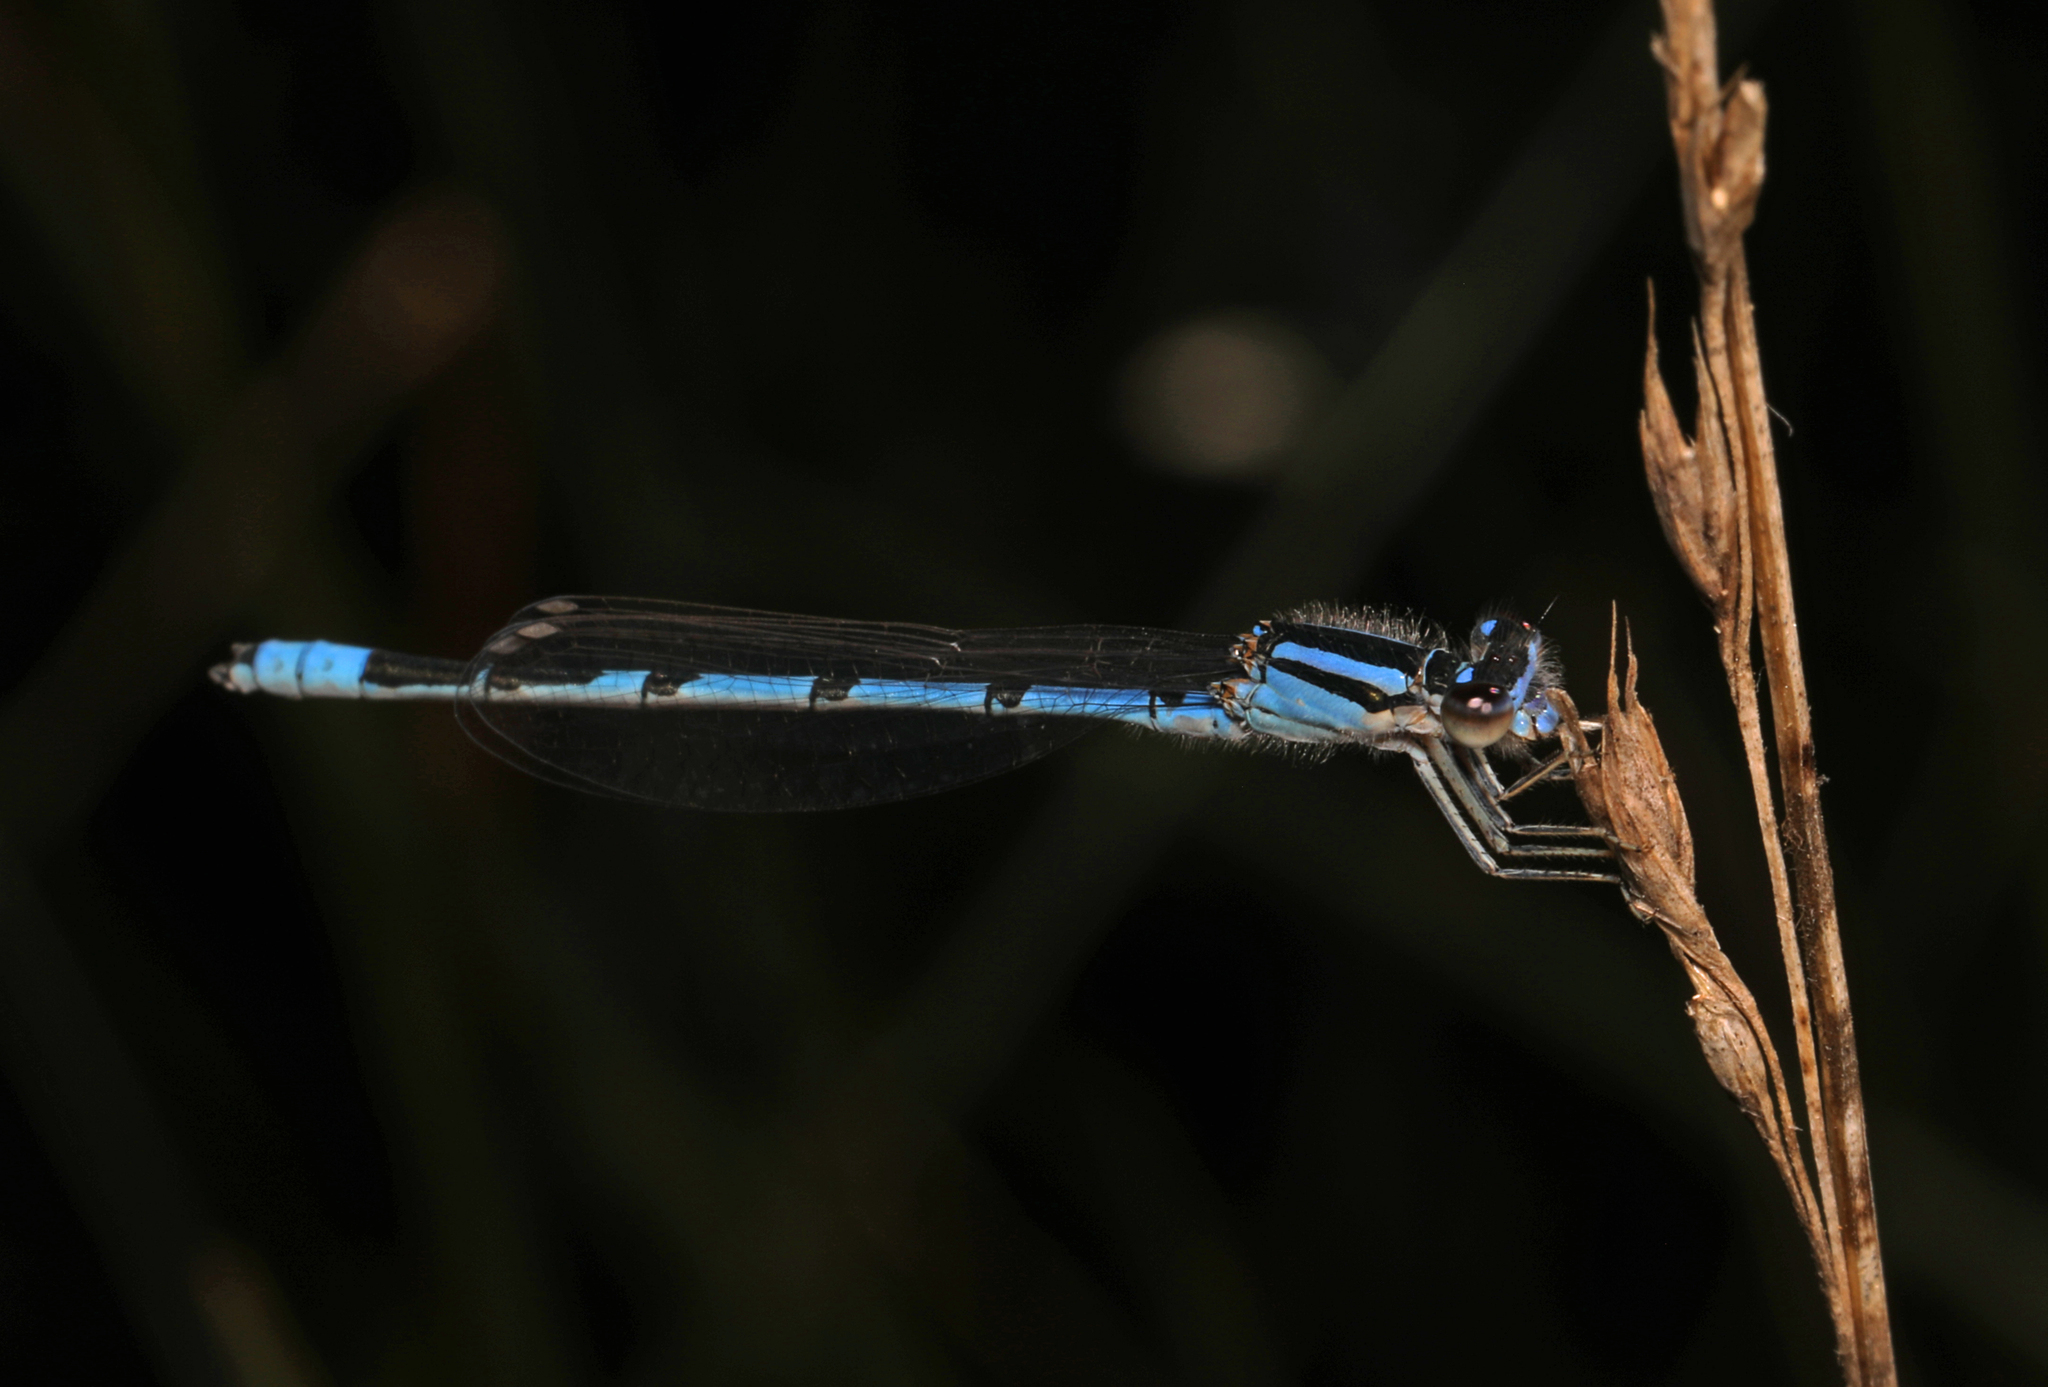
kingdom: Animalia
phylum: Arthropoda
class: Insecta
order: Odonata
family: Coenagrionidae
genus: Enallagma
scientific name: Enallagma civile
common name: Damselfly
